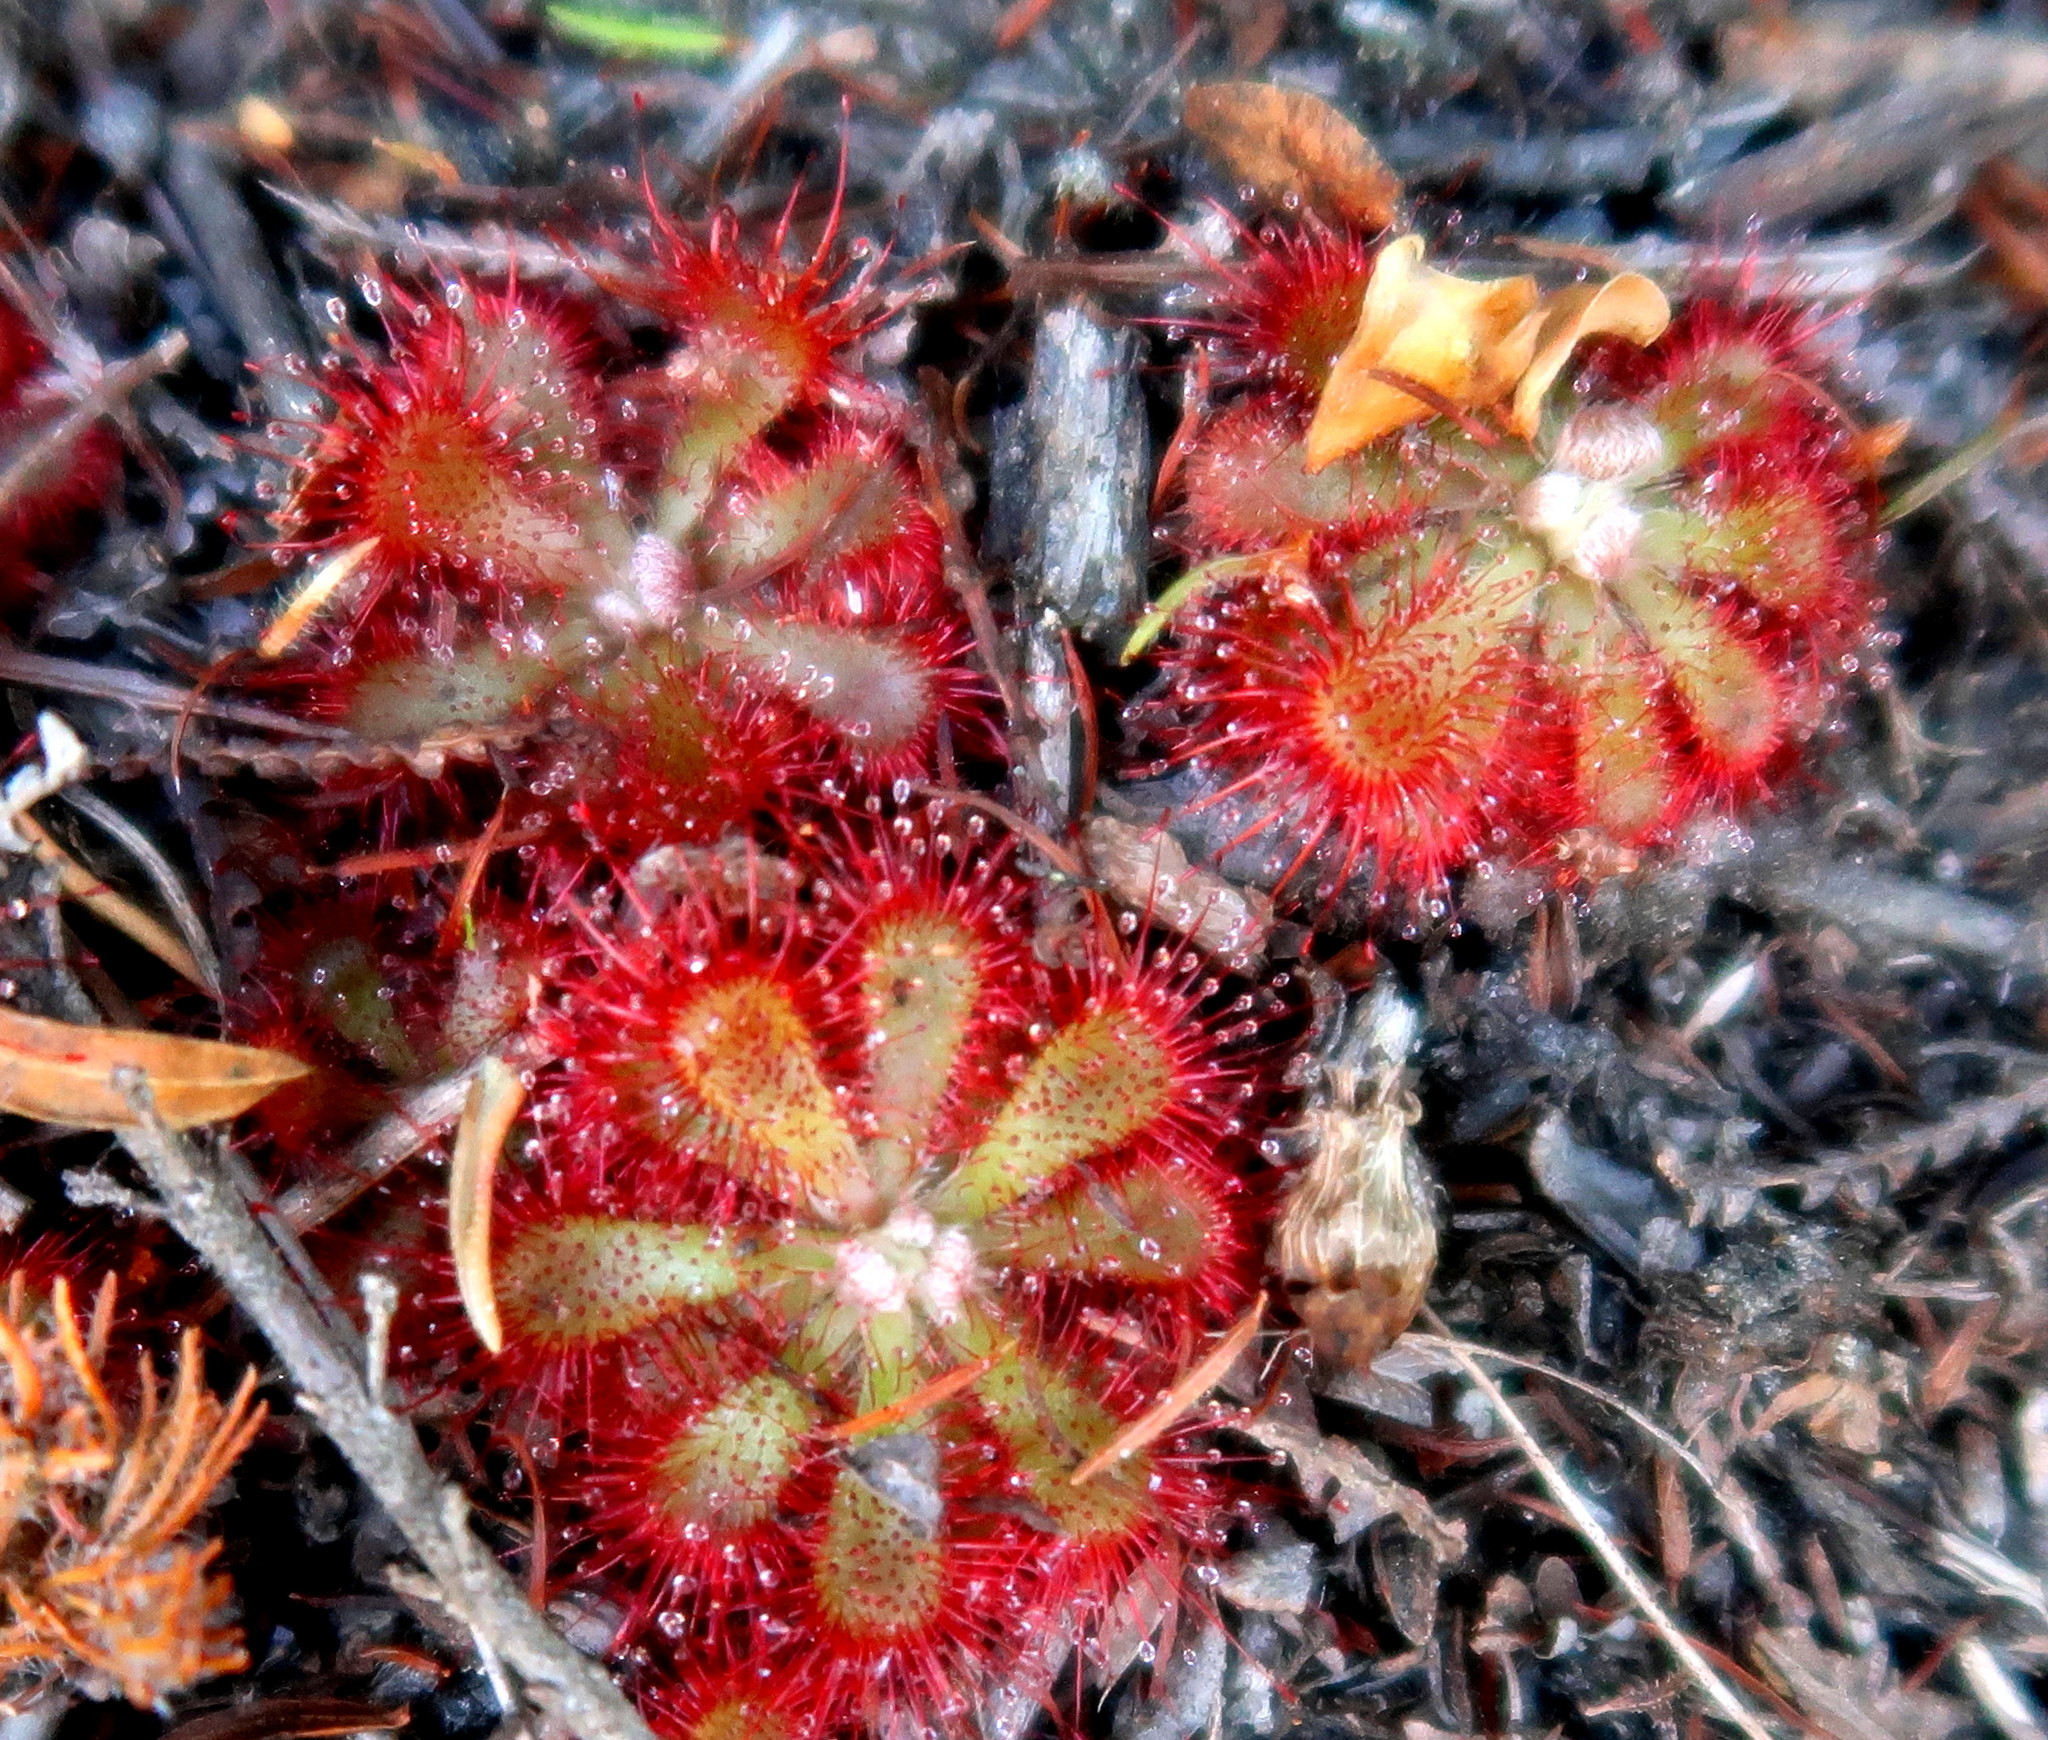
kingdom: Plantae
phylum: Tracheophyta
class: Magnoliopsida
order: Caryophyllales
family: Droseraceae
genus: Drosera
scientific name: Drosera aliciae
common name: Alice sundew
